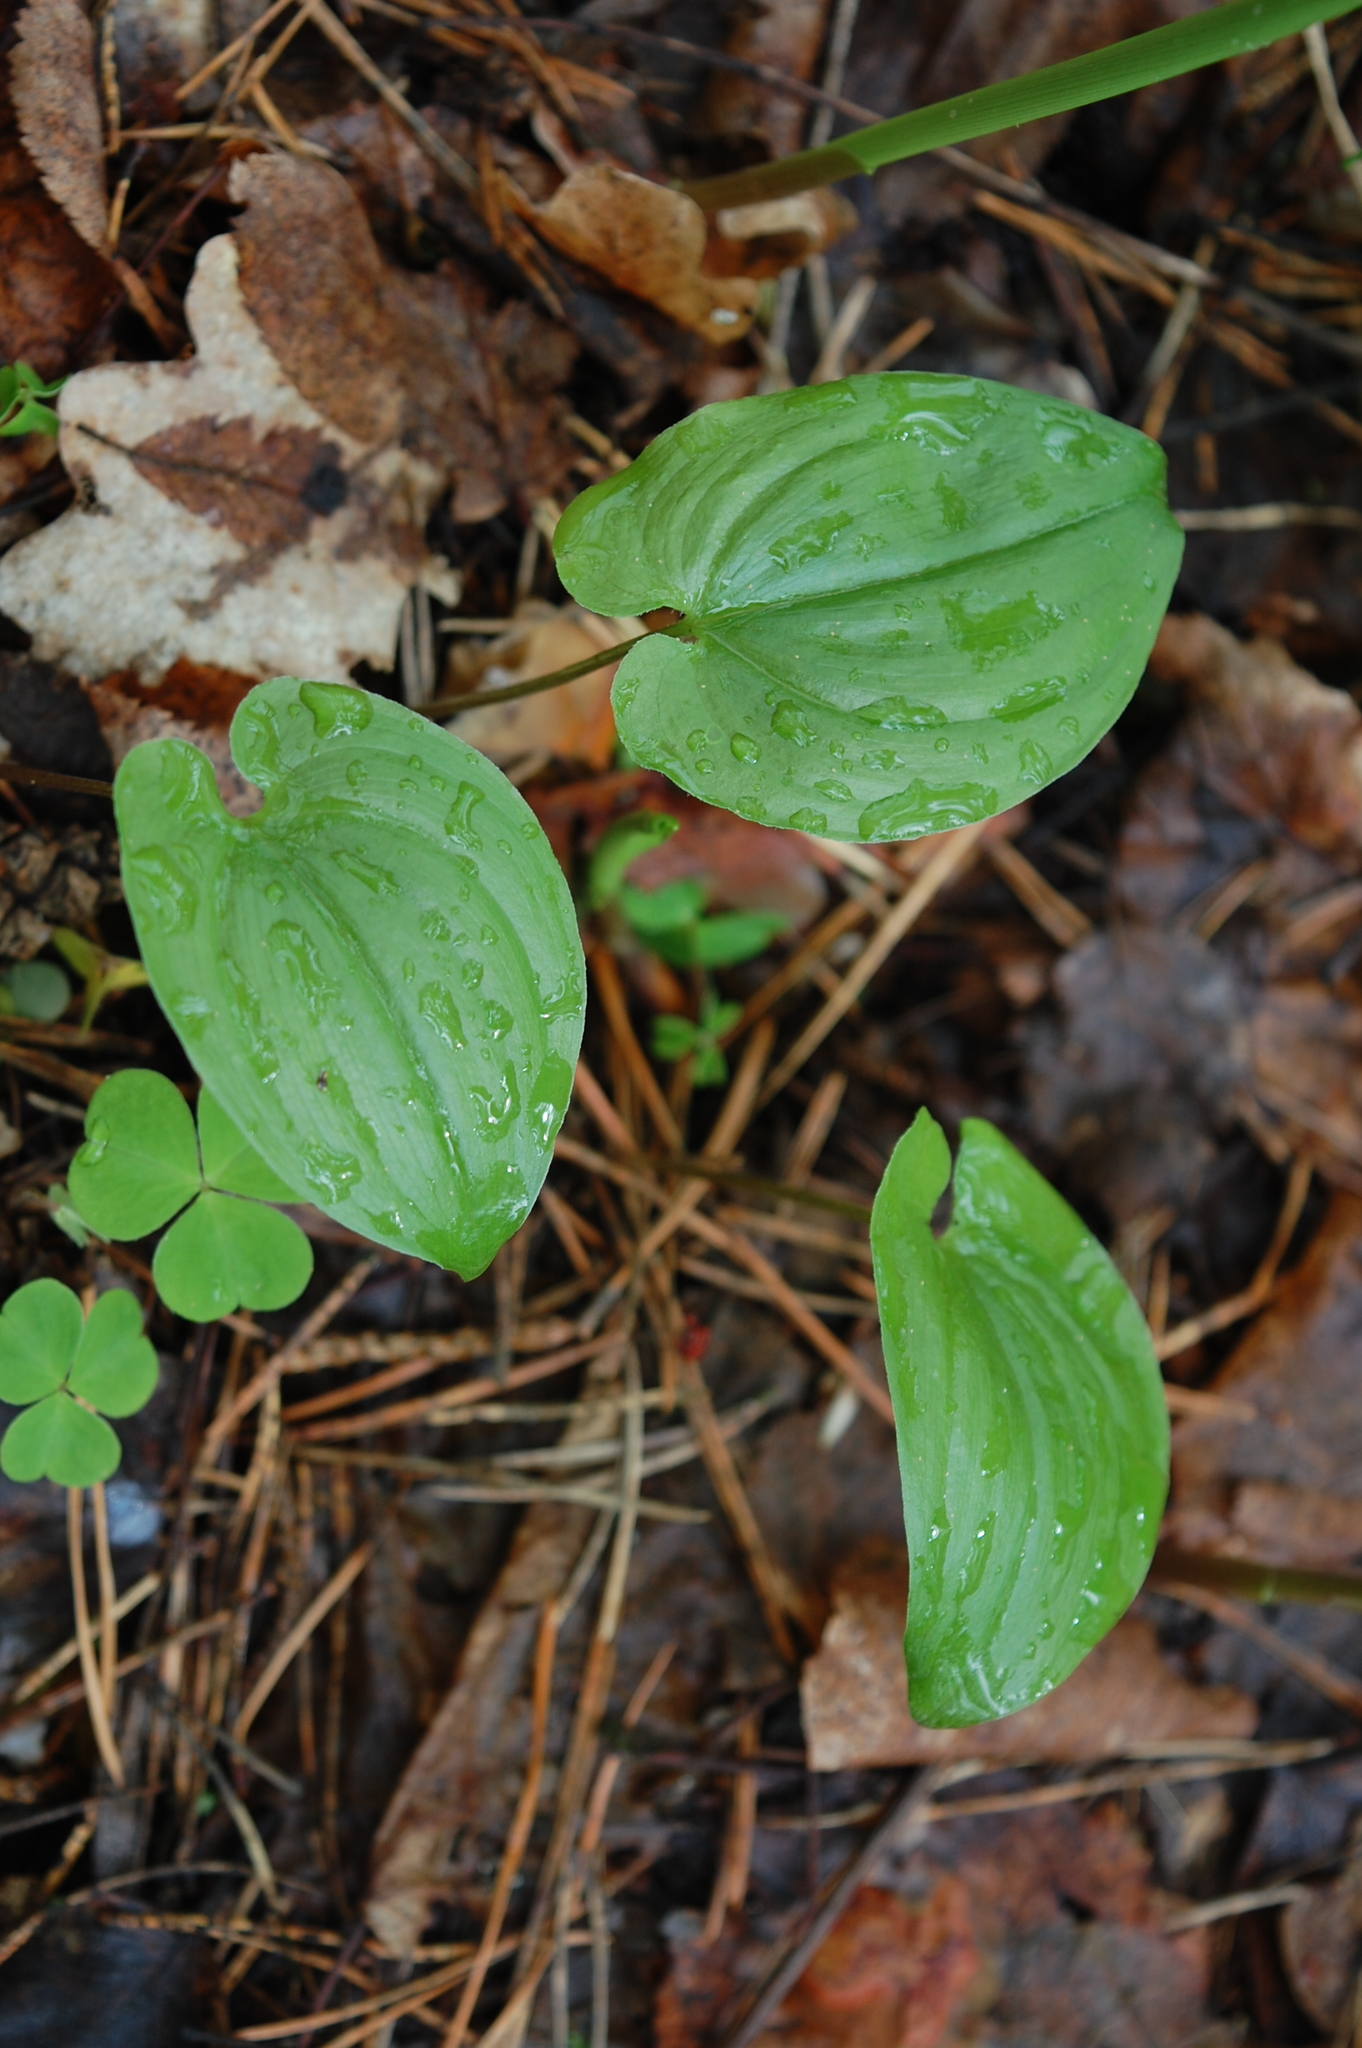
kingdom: Plantae
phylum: Tracheophyta
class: Liliopsida
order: Asparagales
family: Asparagaceae
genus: Maianthemum
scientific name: Maianthemum bifolium
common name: May lily
